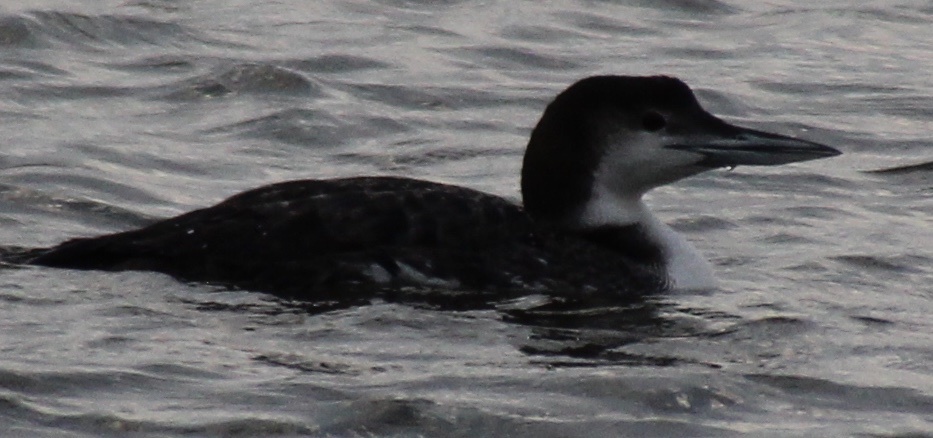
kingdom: Animalia
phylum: Chordata
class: Aves
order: Gaviiformes
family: Gaviidae
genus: Gavia
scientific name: Gavia immer
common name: Common loon
